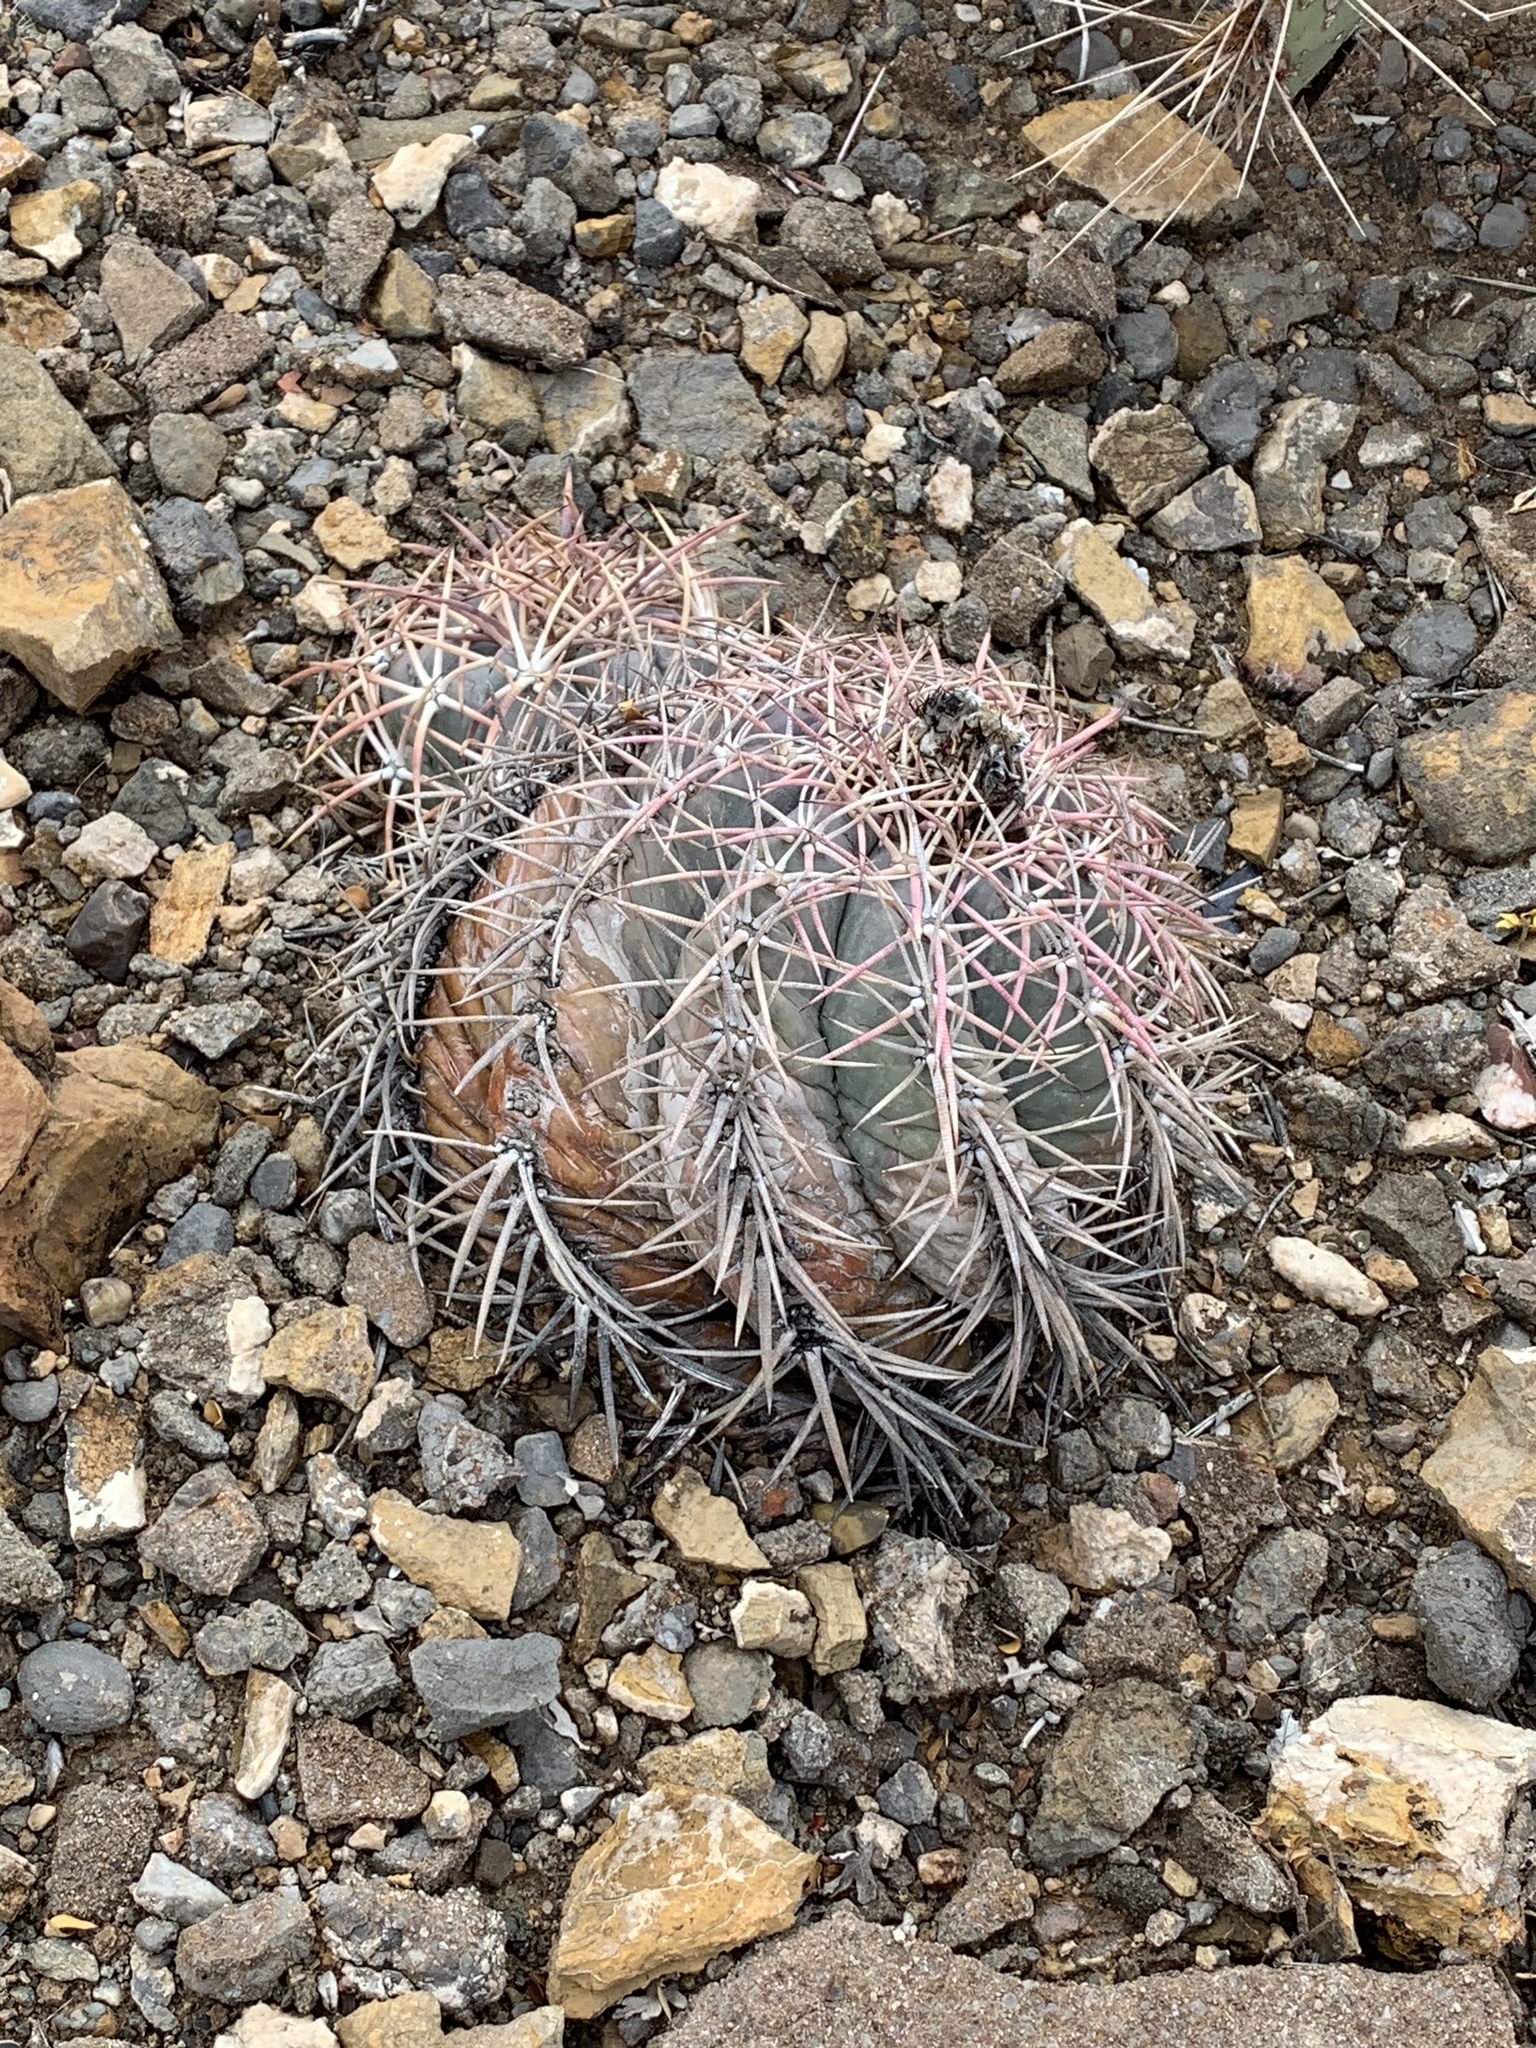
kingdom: Plantae
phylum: Tracheophyta
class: Magnoliopsida
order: Caryophyllales
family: Cactaceae
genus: Echinocactus
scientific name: Echinocactus horizonthalonius
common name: Devilshead
